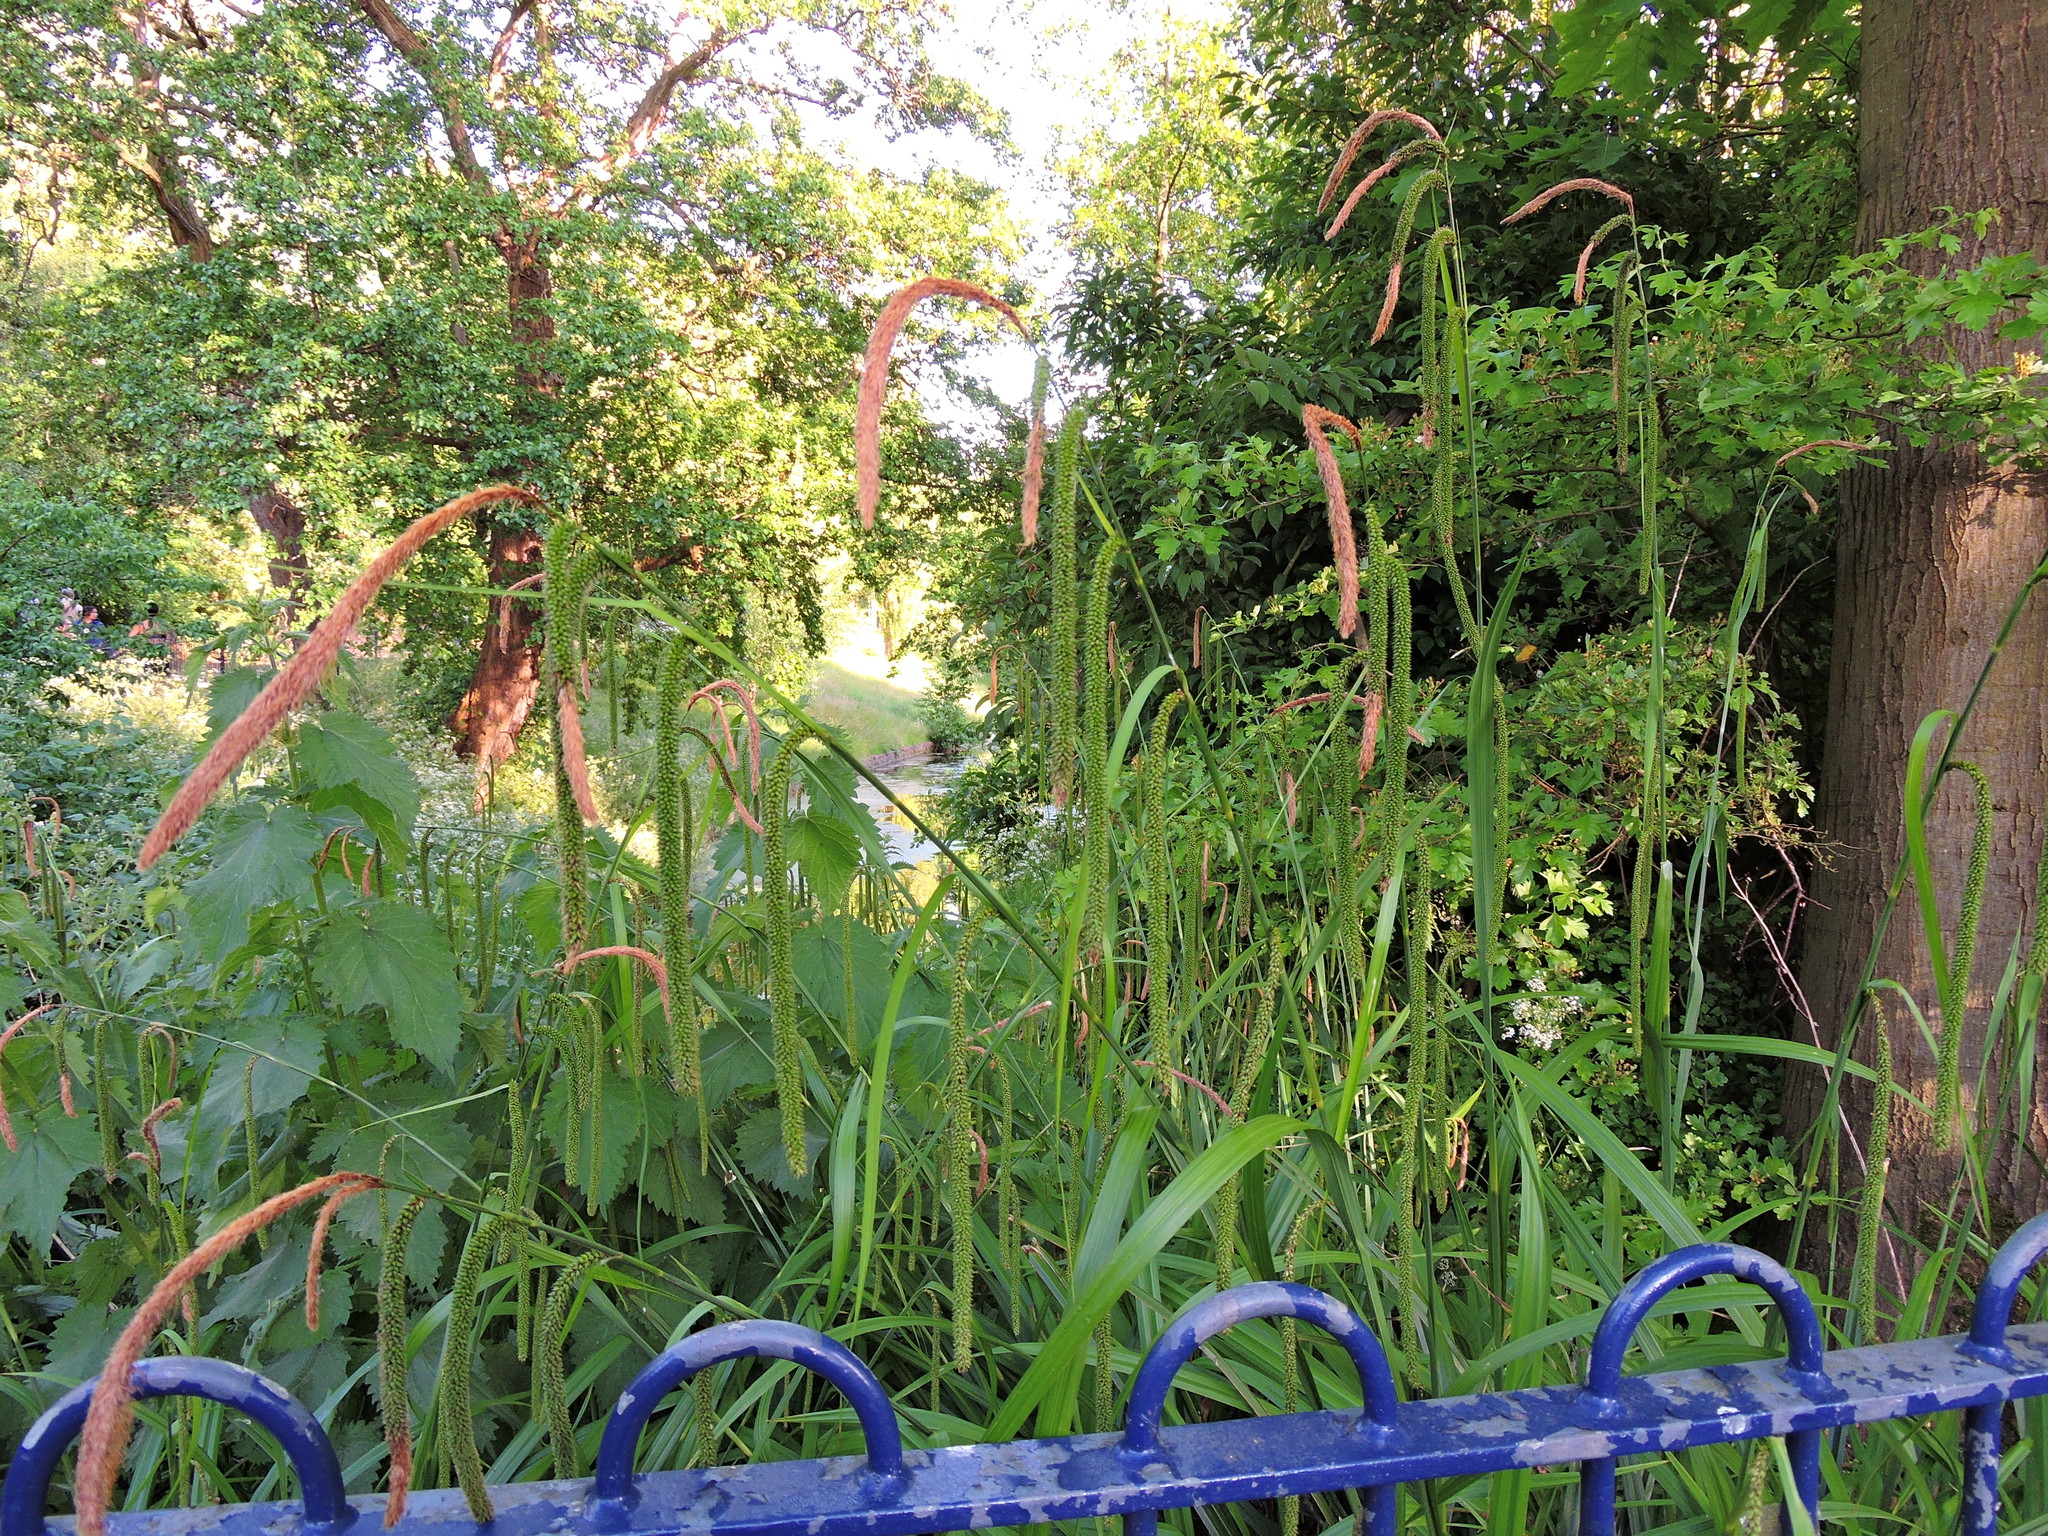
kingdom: Plantae
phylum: Tracheophyta
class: Liliopsida
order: Poales
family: Cyperaceae
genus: Carex
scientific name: Carex pendula
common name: Pendulous sedge
